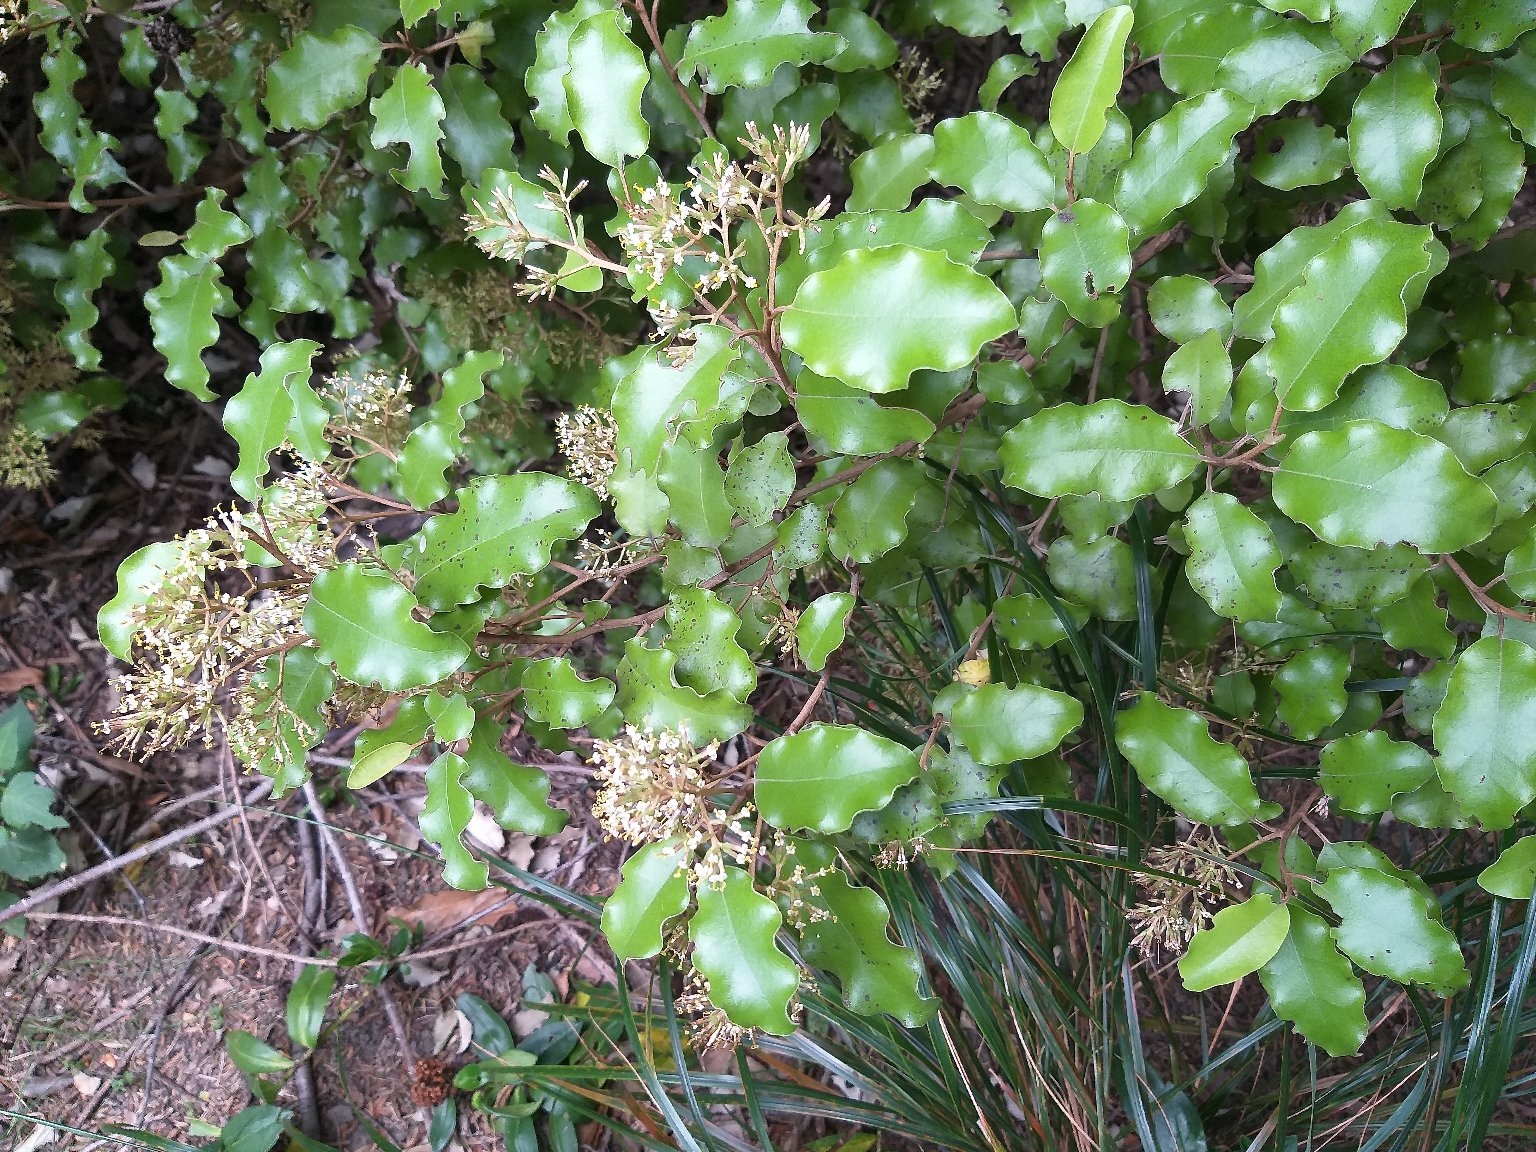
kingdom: Plantae
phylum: Tracheophyta
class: Magnoliopsida
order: Asterales
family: Asteraceae
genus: Olearia
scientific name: Olearia paniculata
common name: Akiraho
